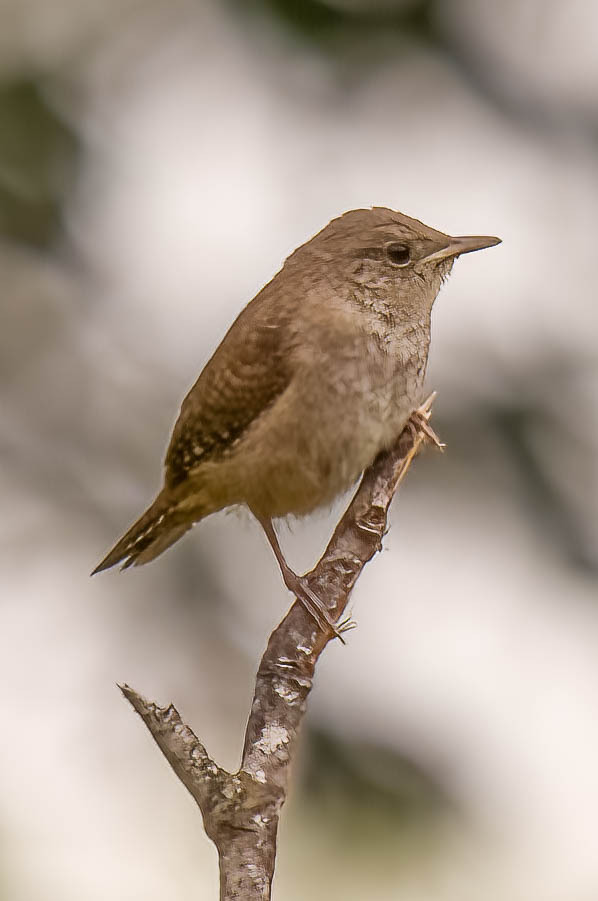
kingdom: Animalia
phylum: Chordata
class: Aves
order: Passeriformes
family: Troglodytidae
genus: Troglodytes
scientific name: Troglodytes aedon
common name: House wren
